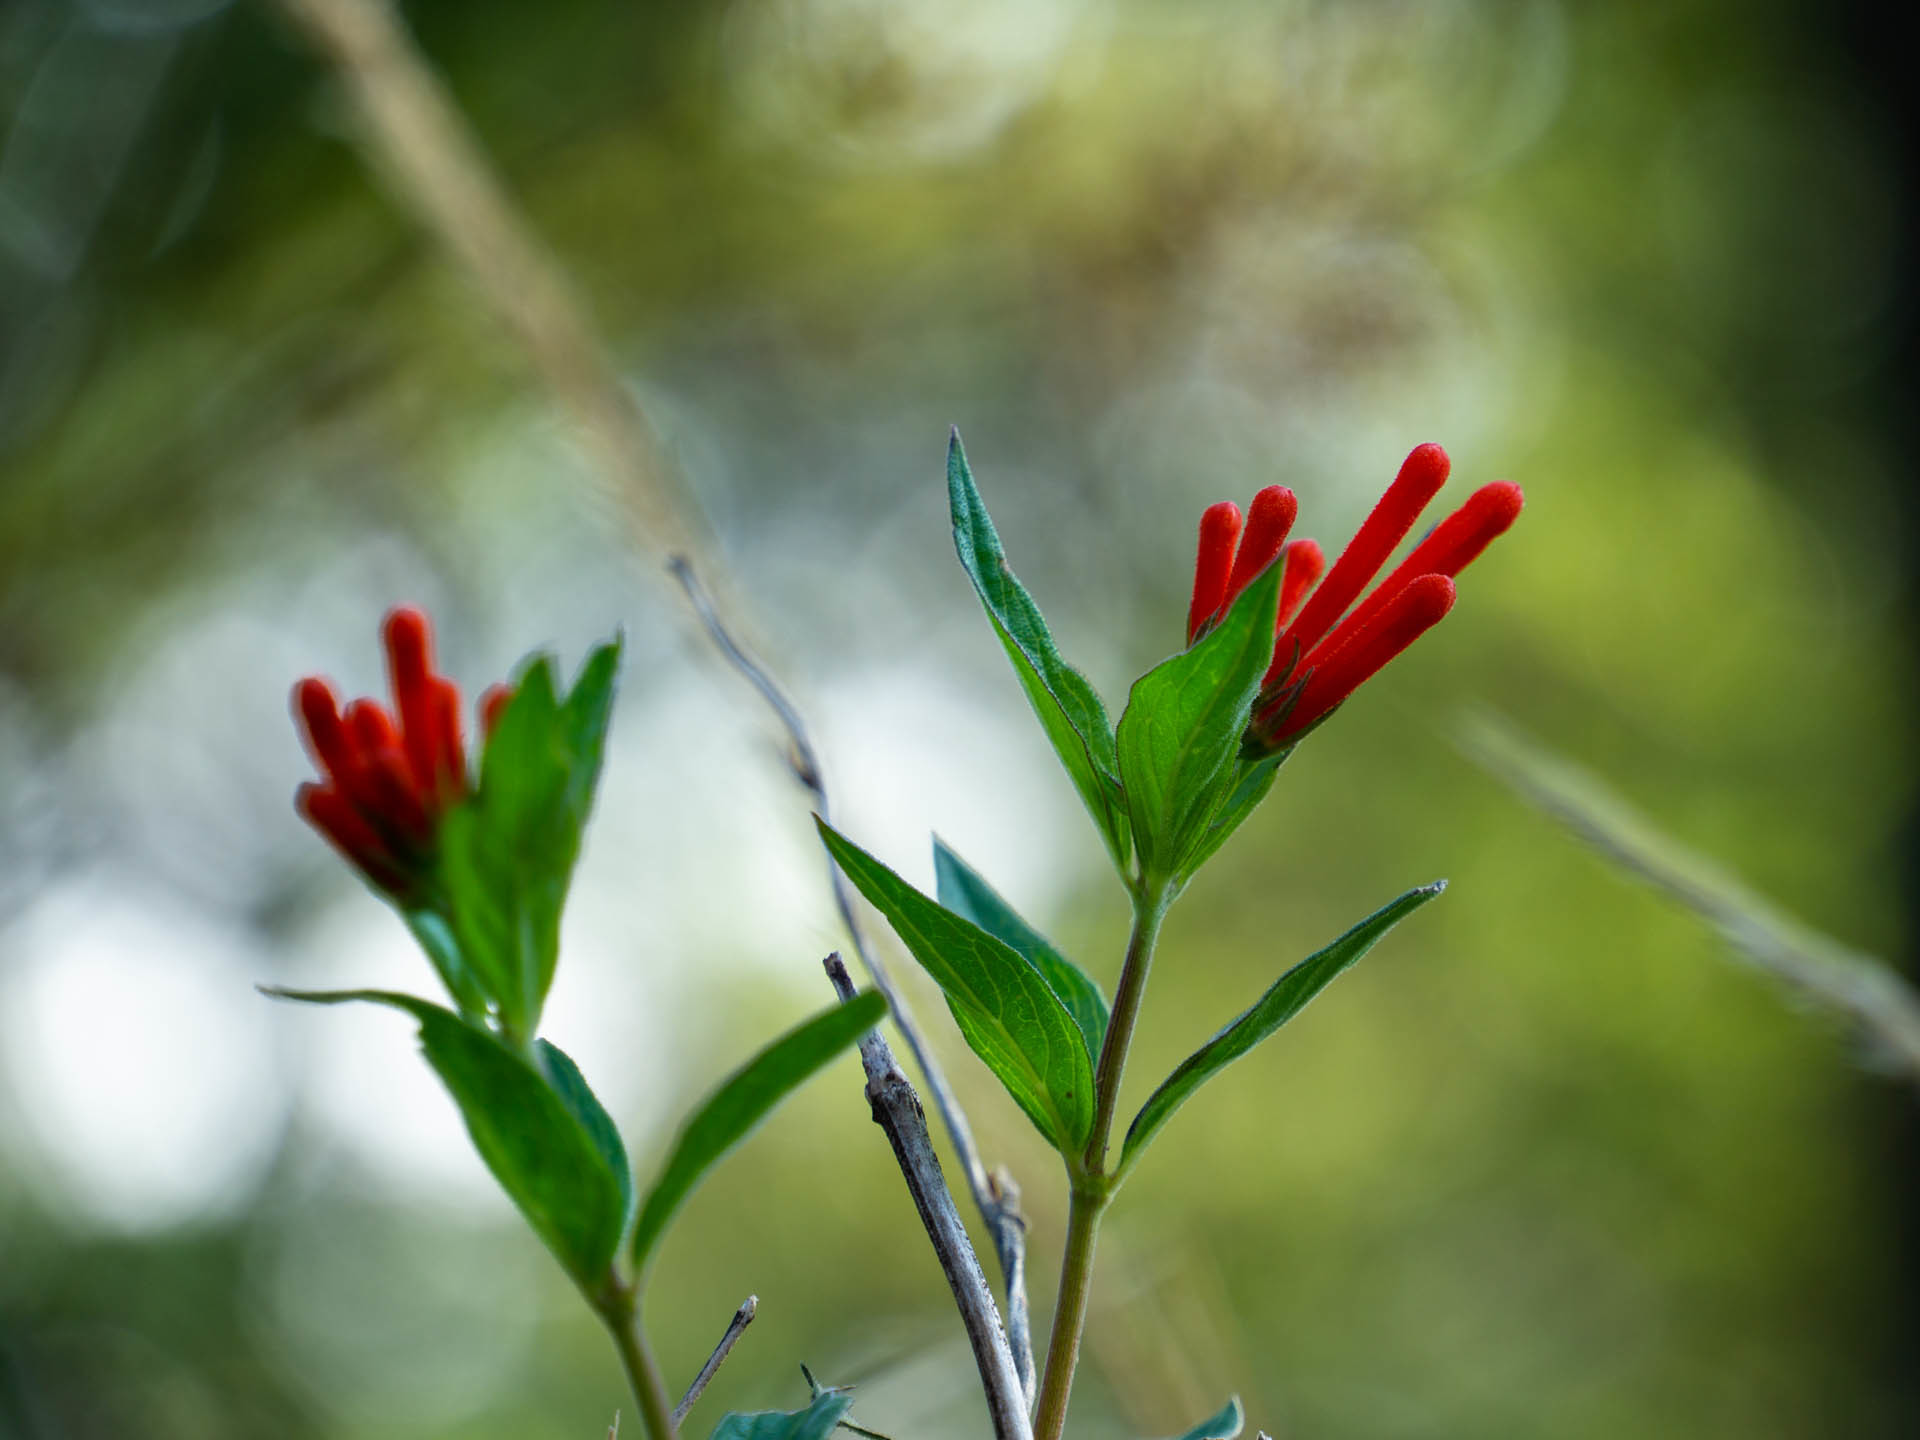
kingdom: Plantae
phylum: Tracheophyta
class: Magnoliopsida
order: Gentianales
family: Rubiaceae
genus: Bouvardia
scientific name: Bouvardia ternifolia
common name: Scarlet bouvardia
